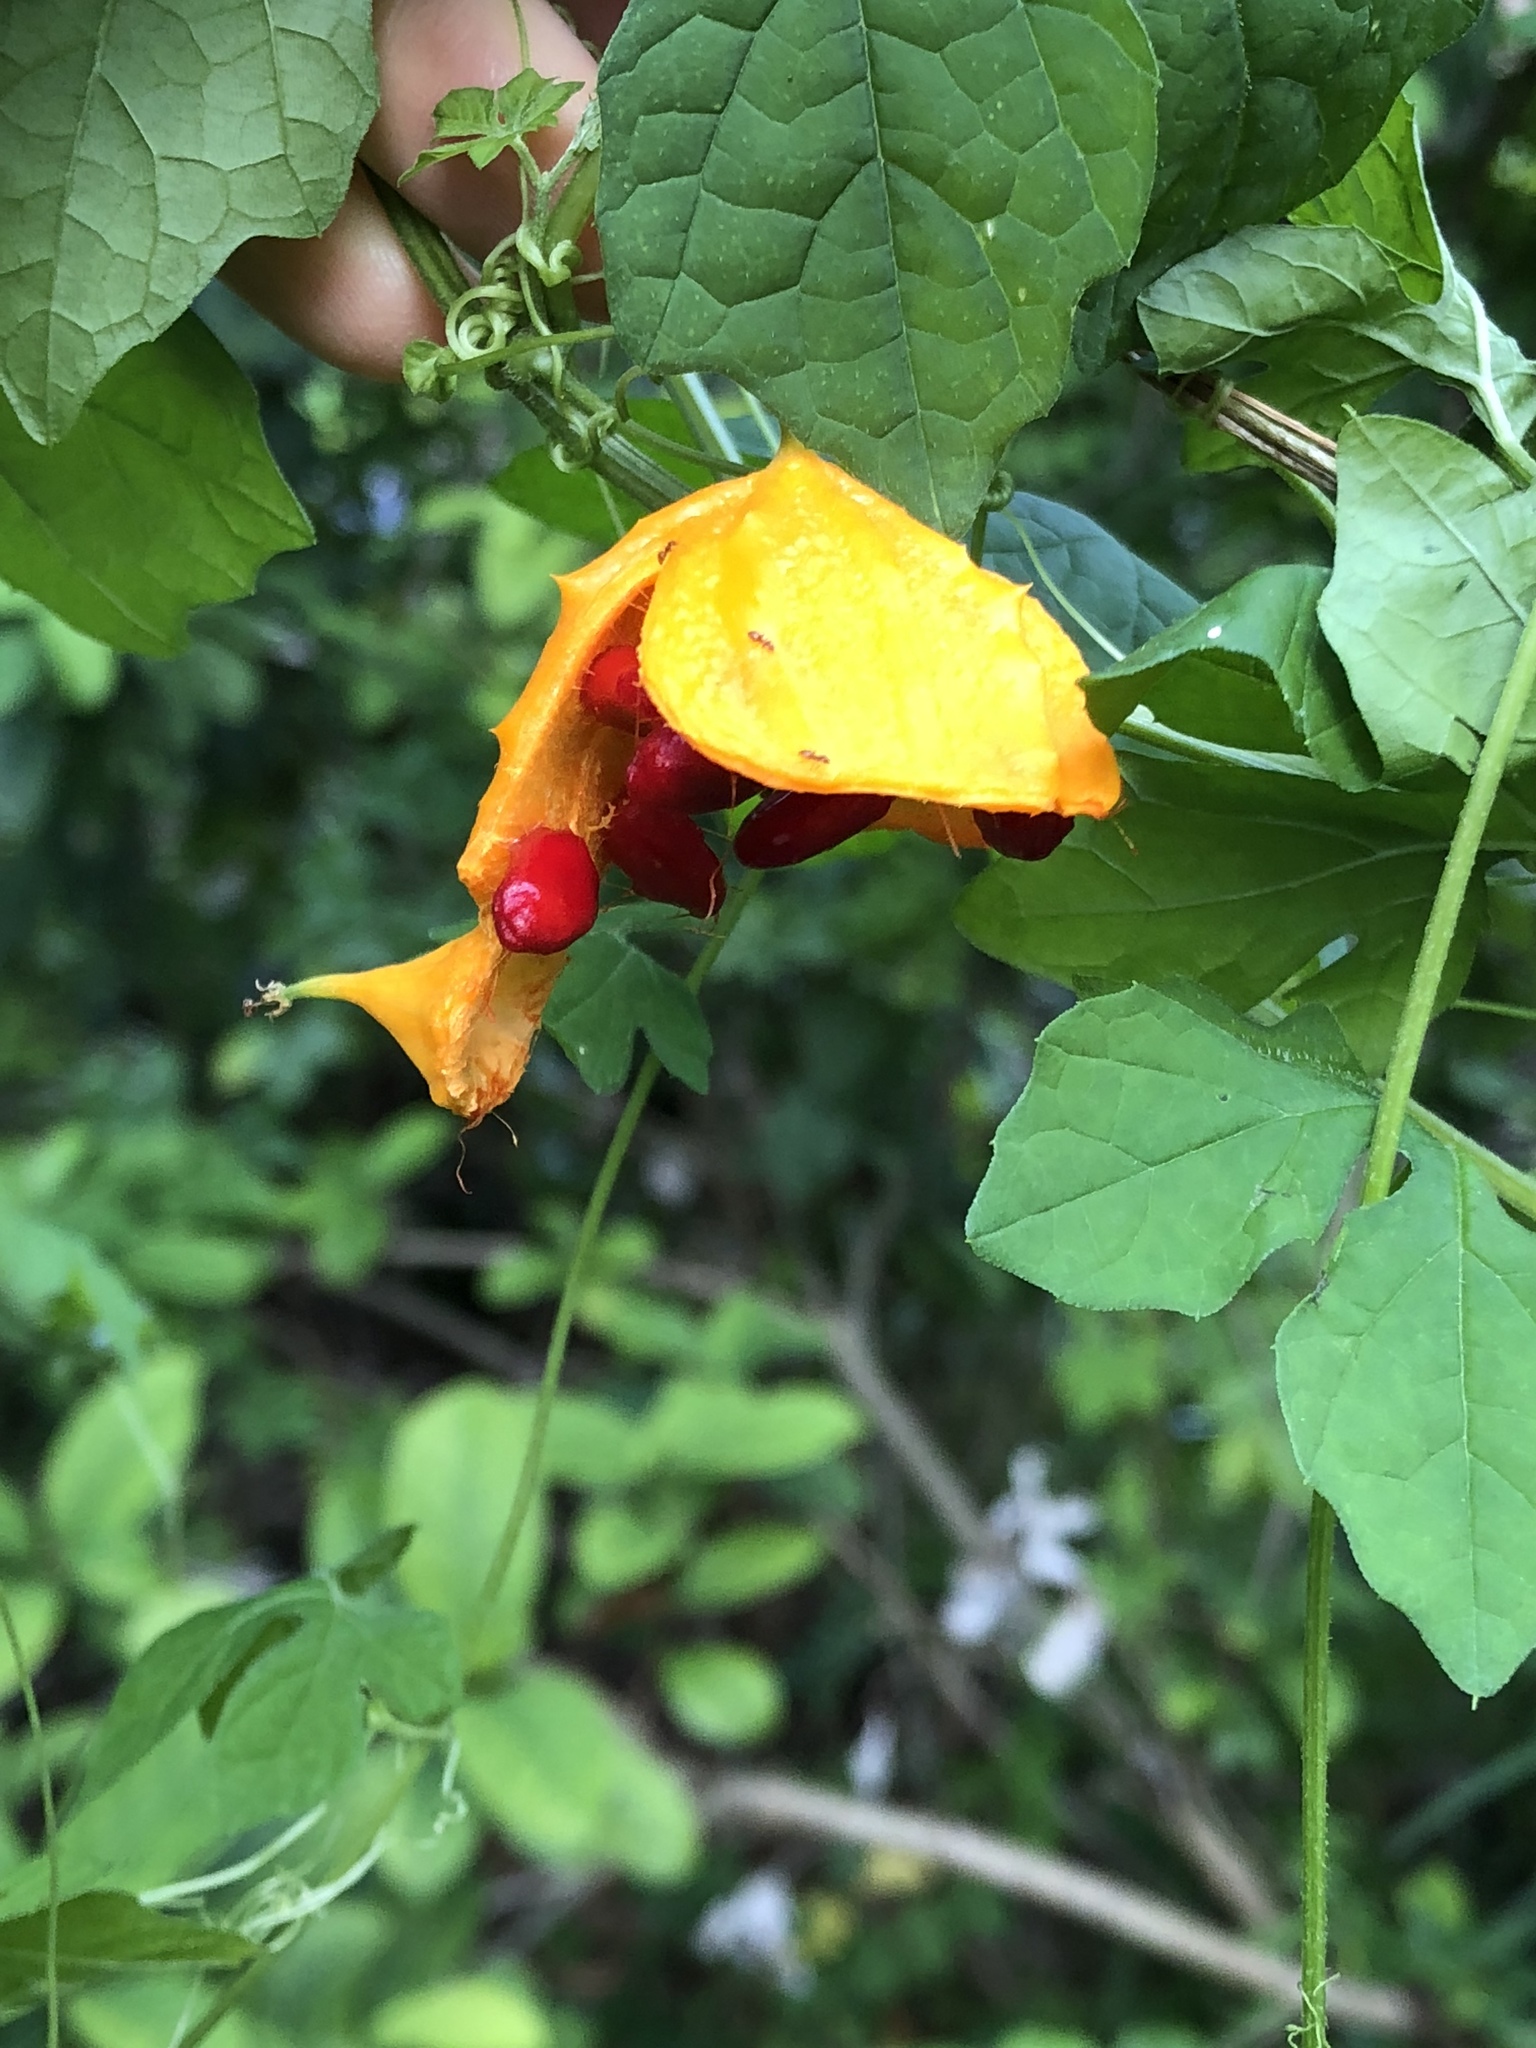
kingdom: Plantae
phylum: Tracheophyta
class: Magnoliopsida
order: Cucurbitales
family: Cucurbitaceae
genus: Momordica
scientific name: Momordica charantia
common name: Balsampear
